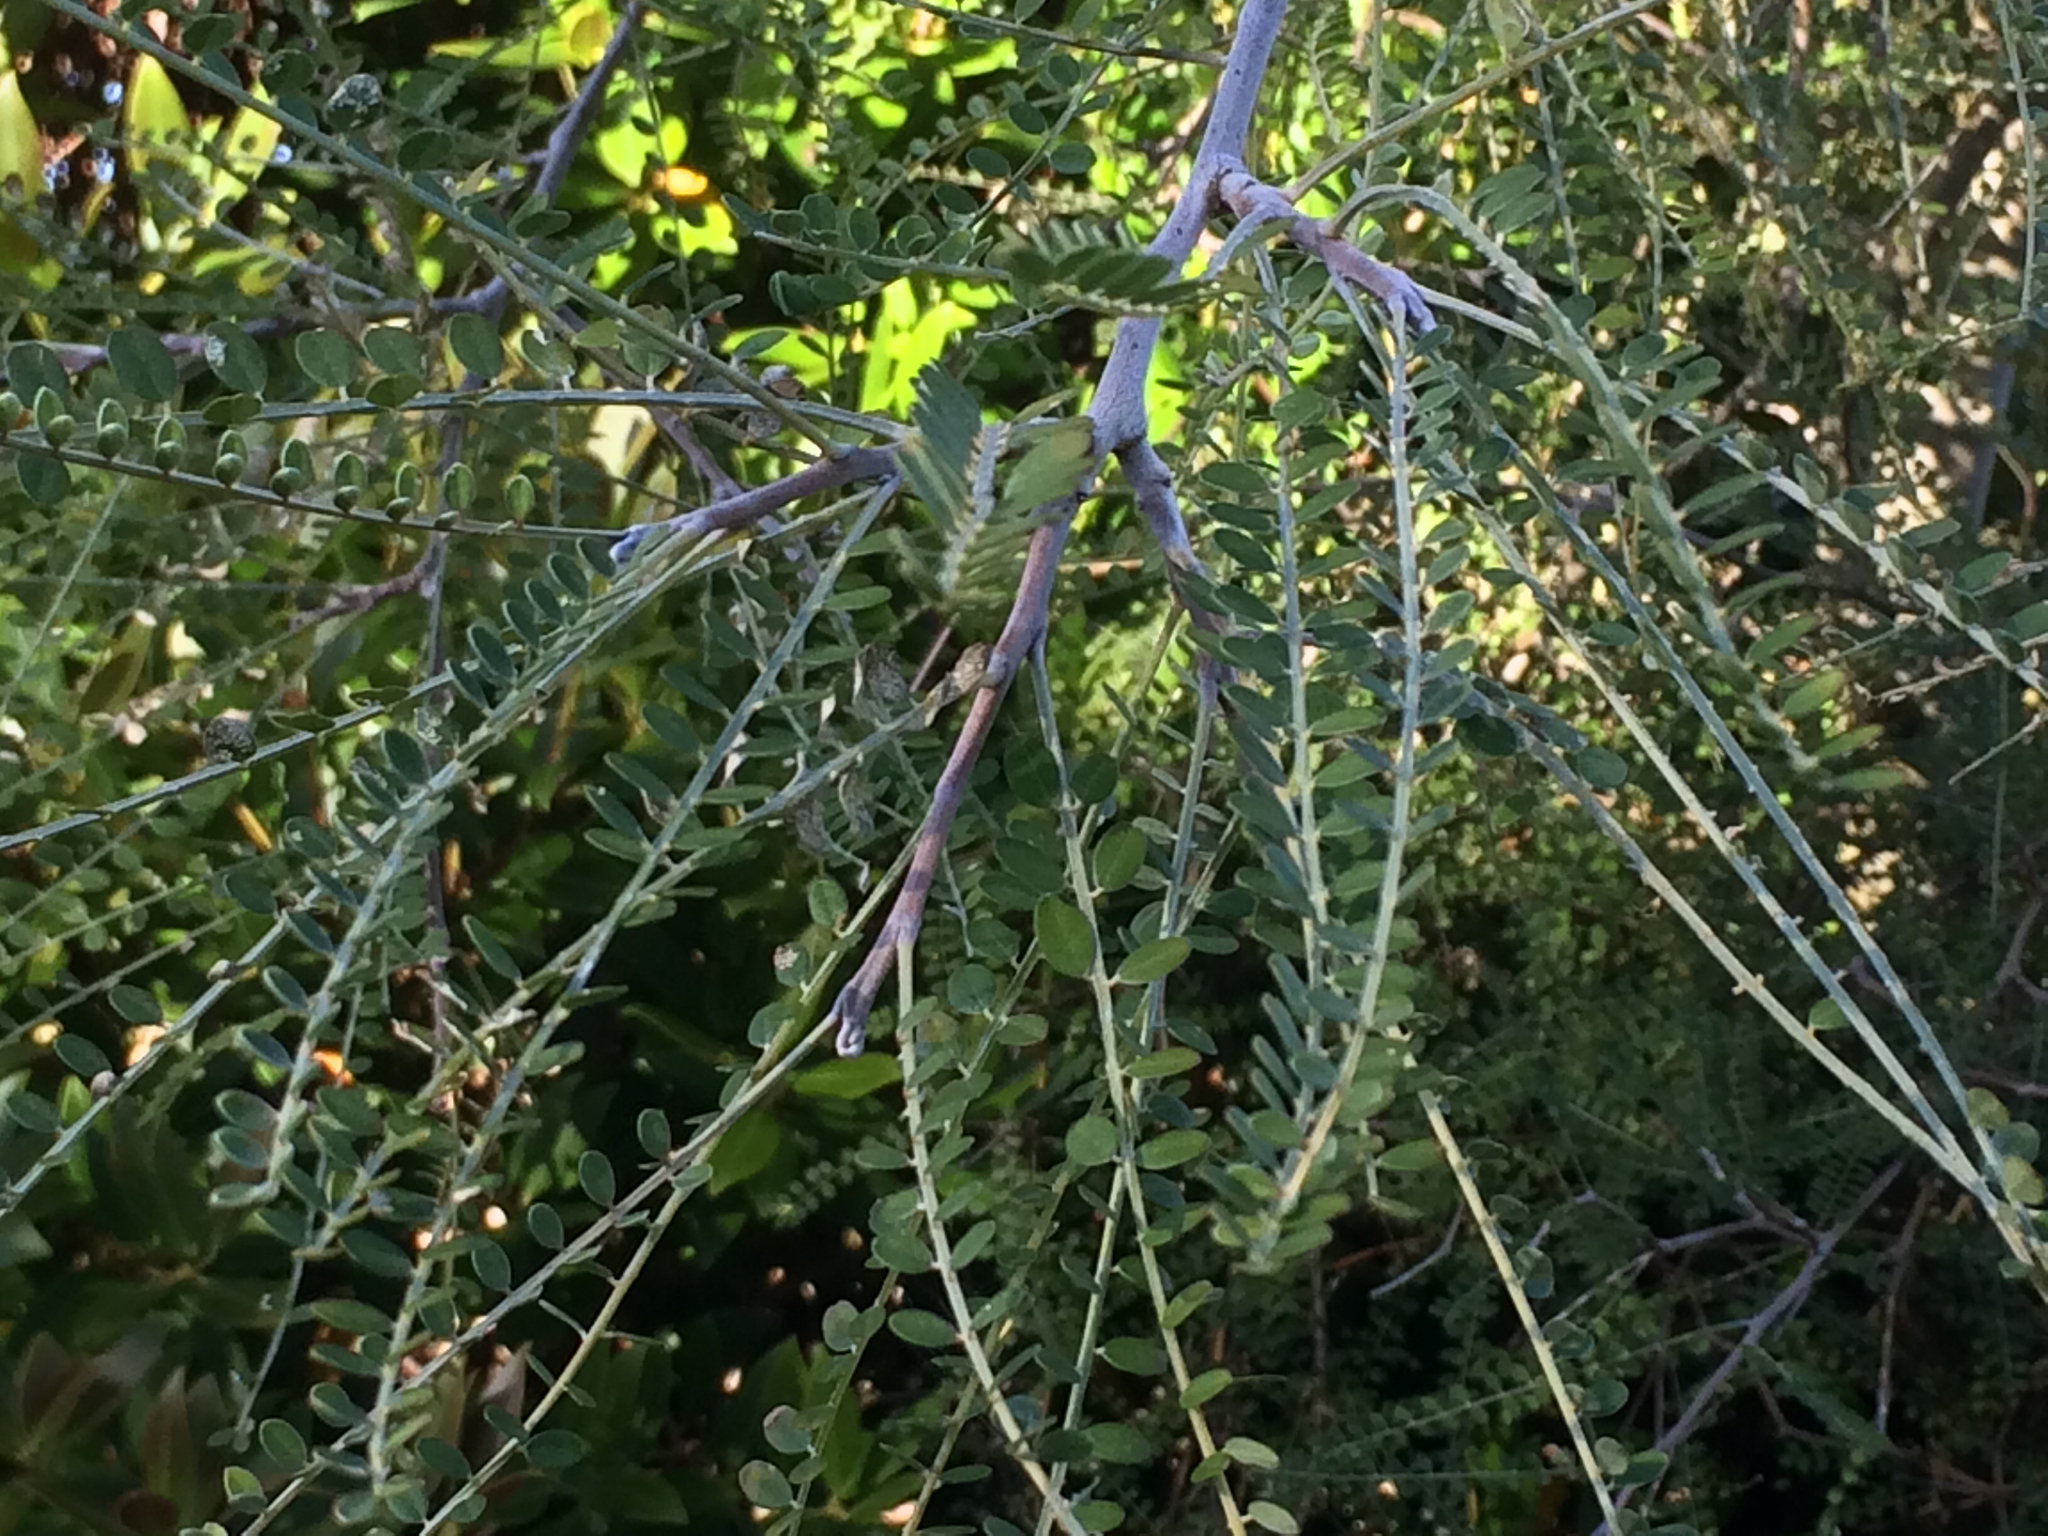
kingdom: Plantae
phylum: Tracheophyta
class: Magnoliopsida
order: Fabales
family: Fabaceae
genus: Sophora
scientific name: Sophora microphylla
